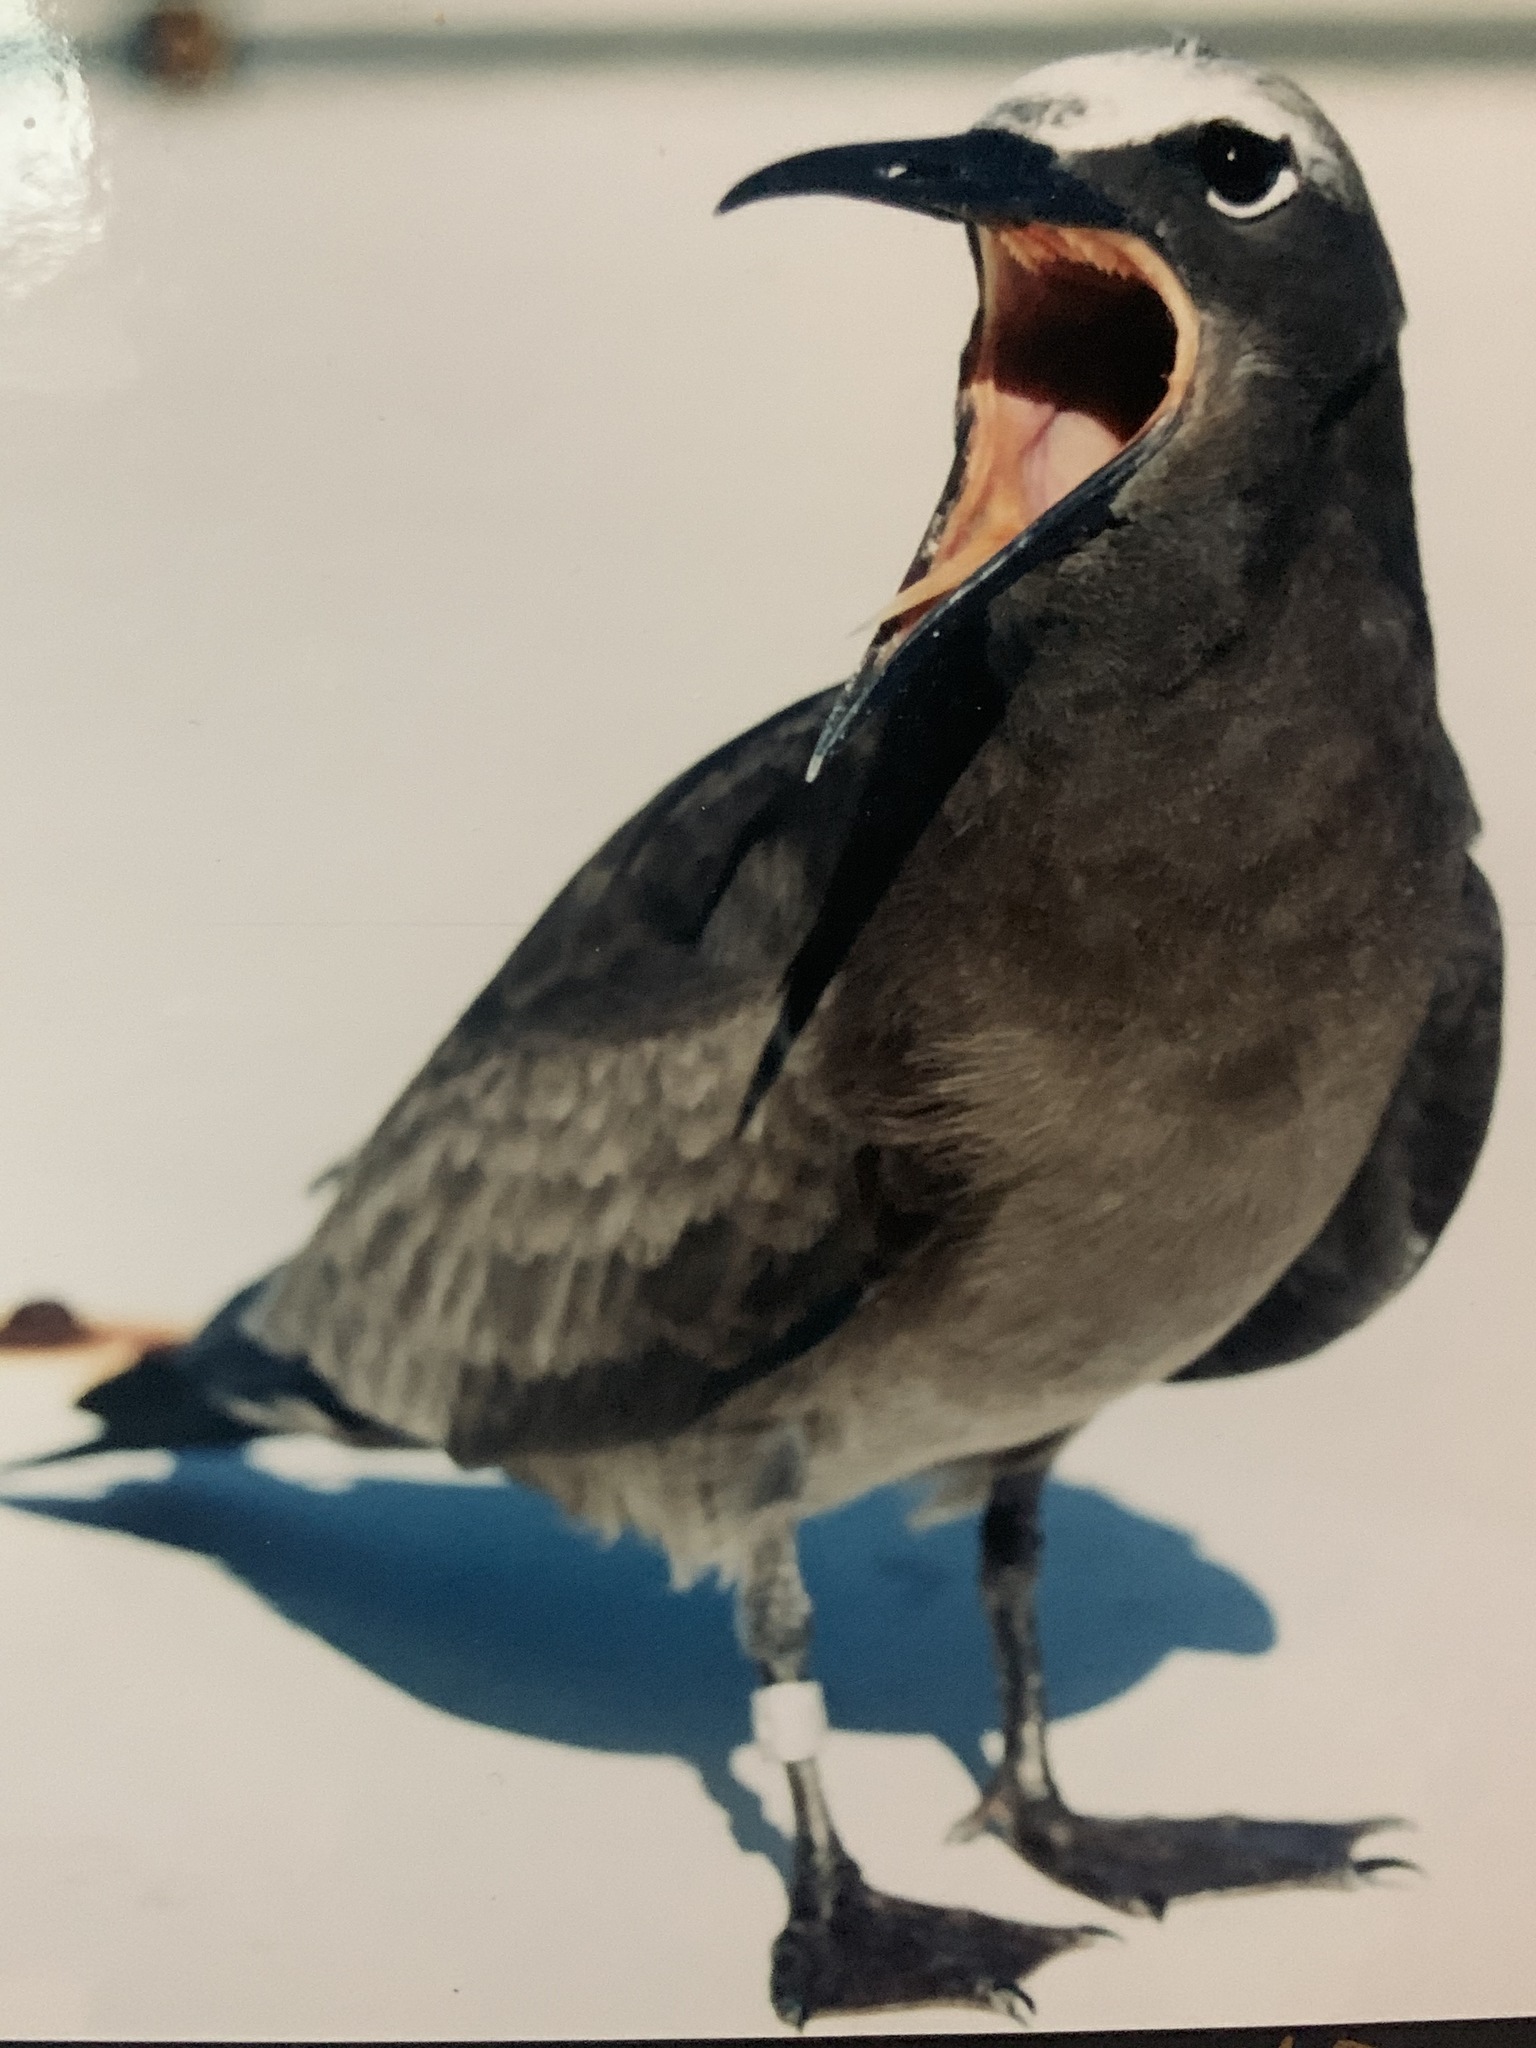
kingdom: Animalia
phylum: Chordata
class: Aves
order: Charadriiformes
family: Laridae
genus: Anous
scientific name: Anous stolidus
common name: Brown noddy
